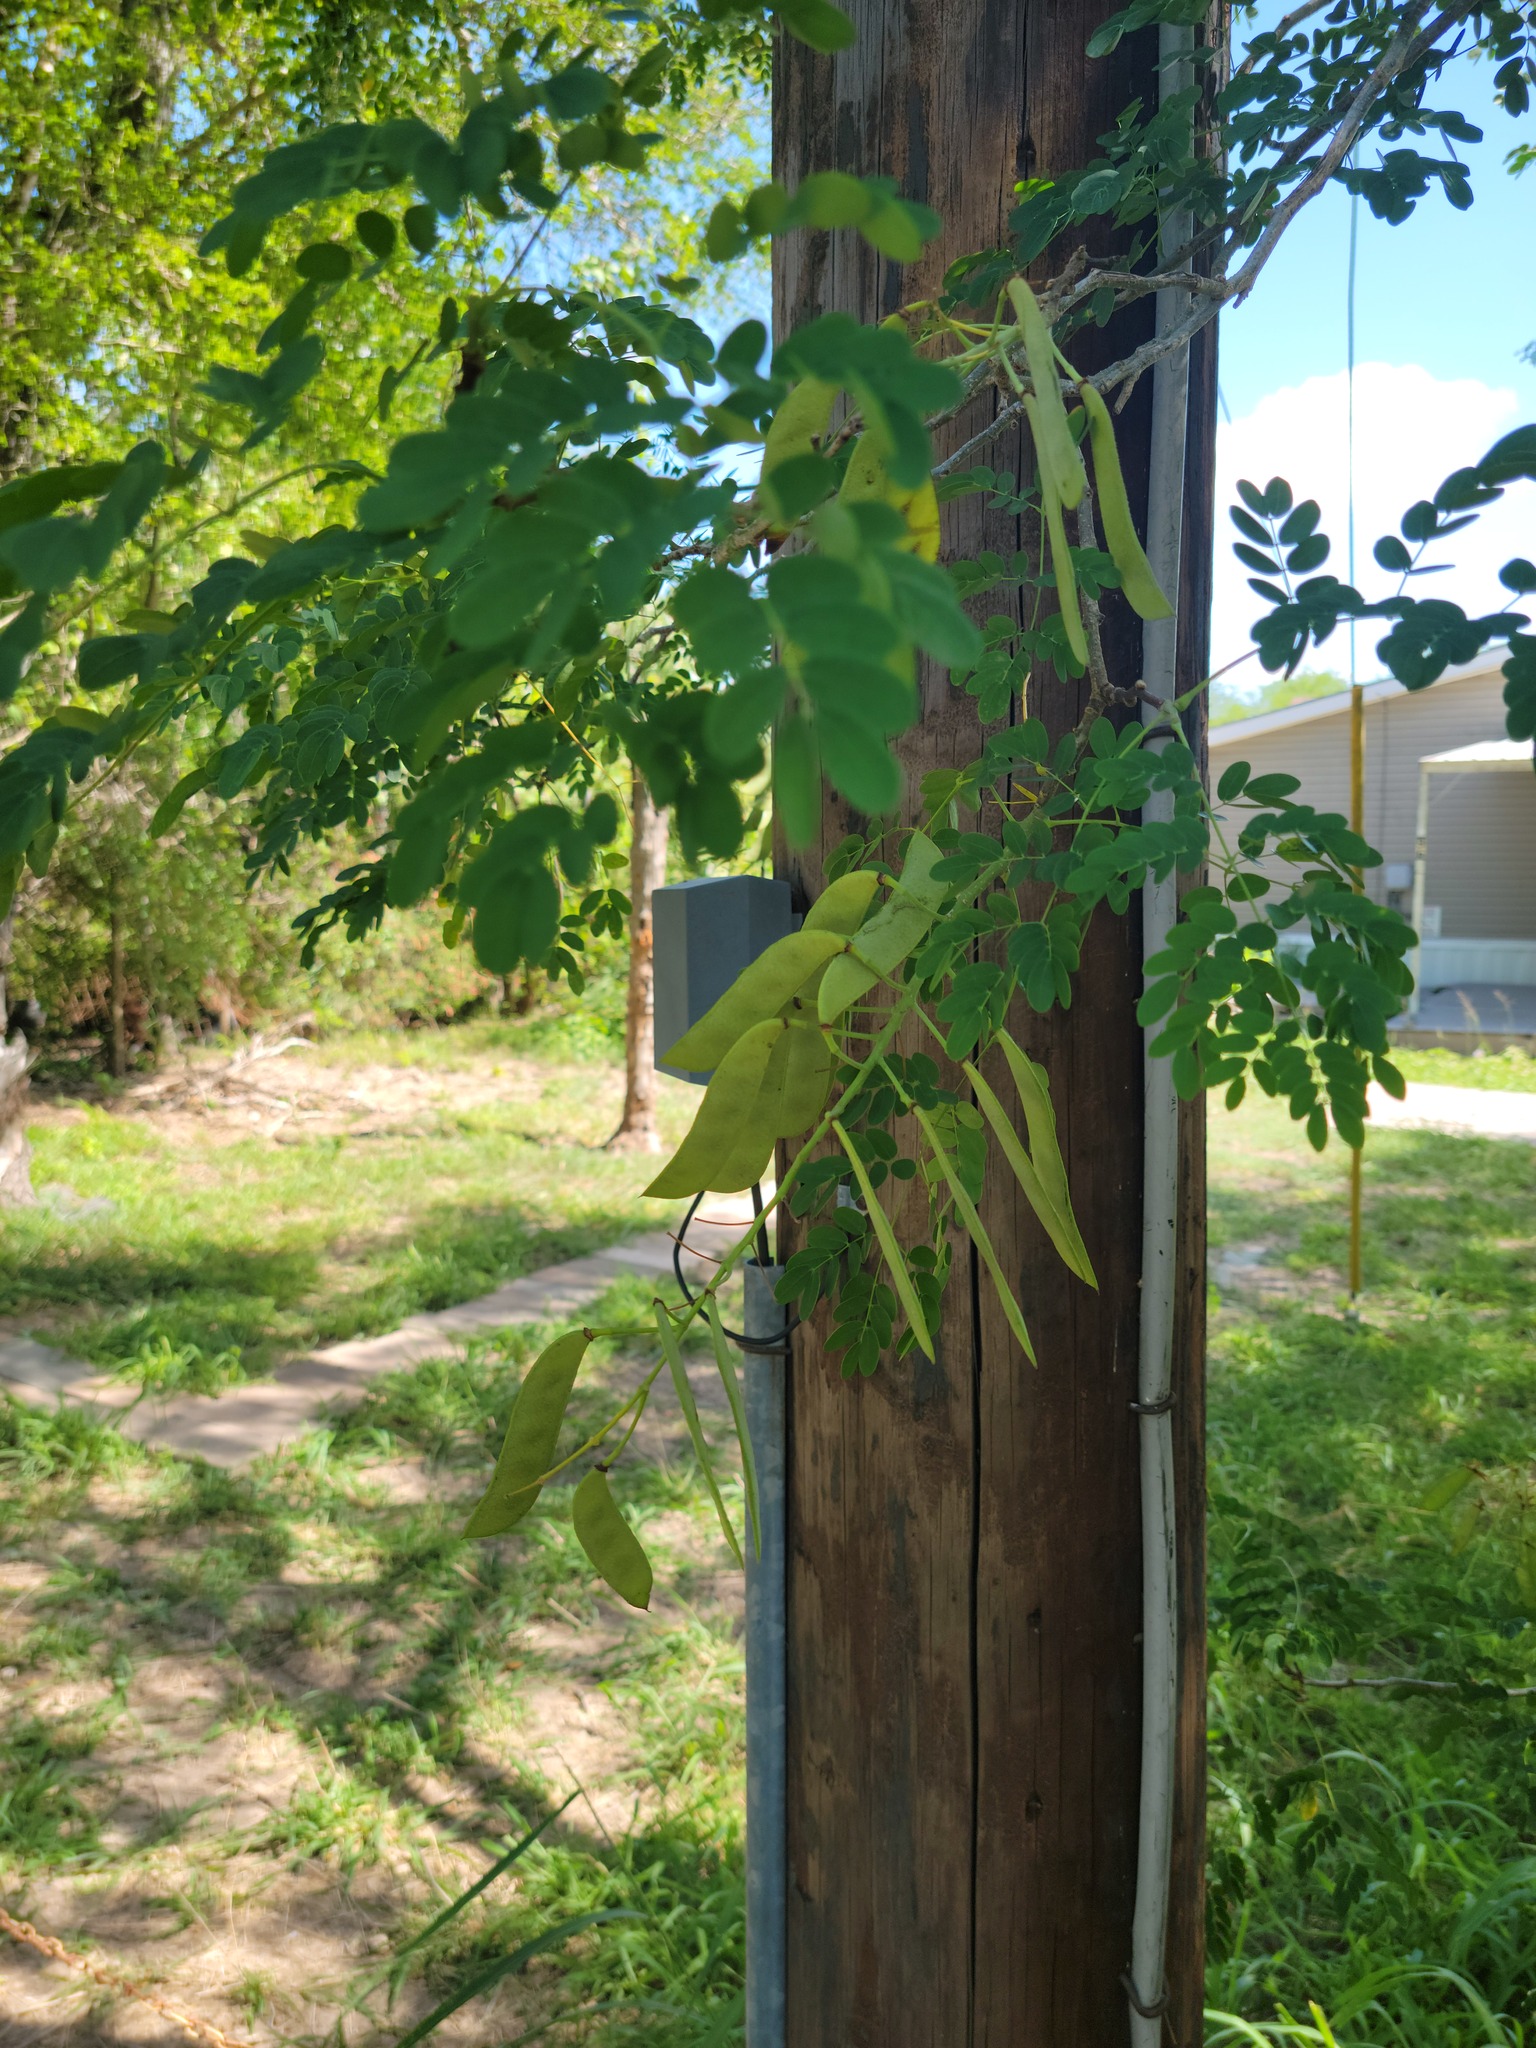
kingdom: Plantae
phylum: Tracheophyta
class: Magnoliopsida
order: Fabales
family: Fabaceae
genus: Erythrostemon
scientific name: Erythrostemon mexicanus
